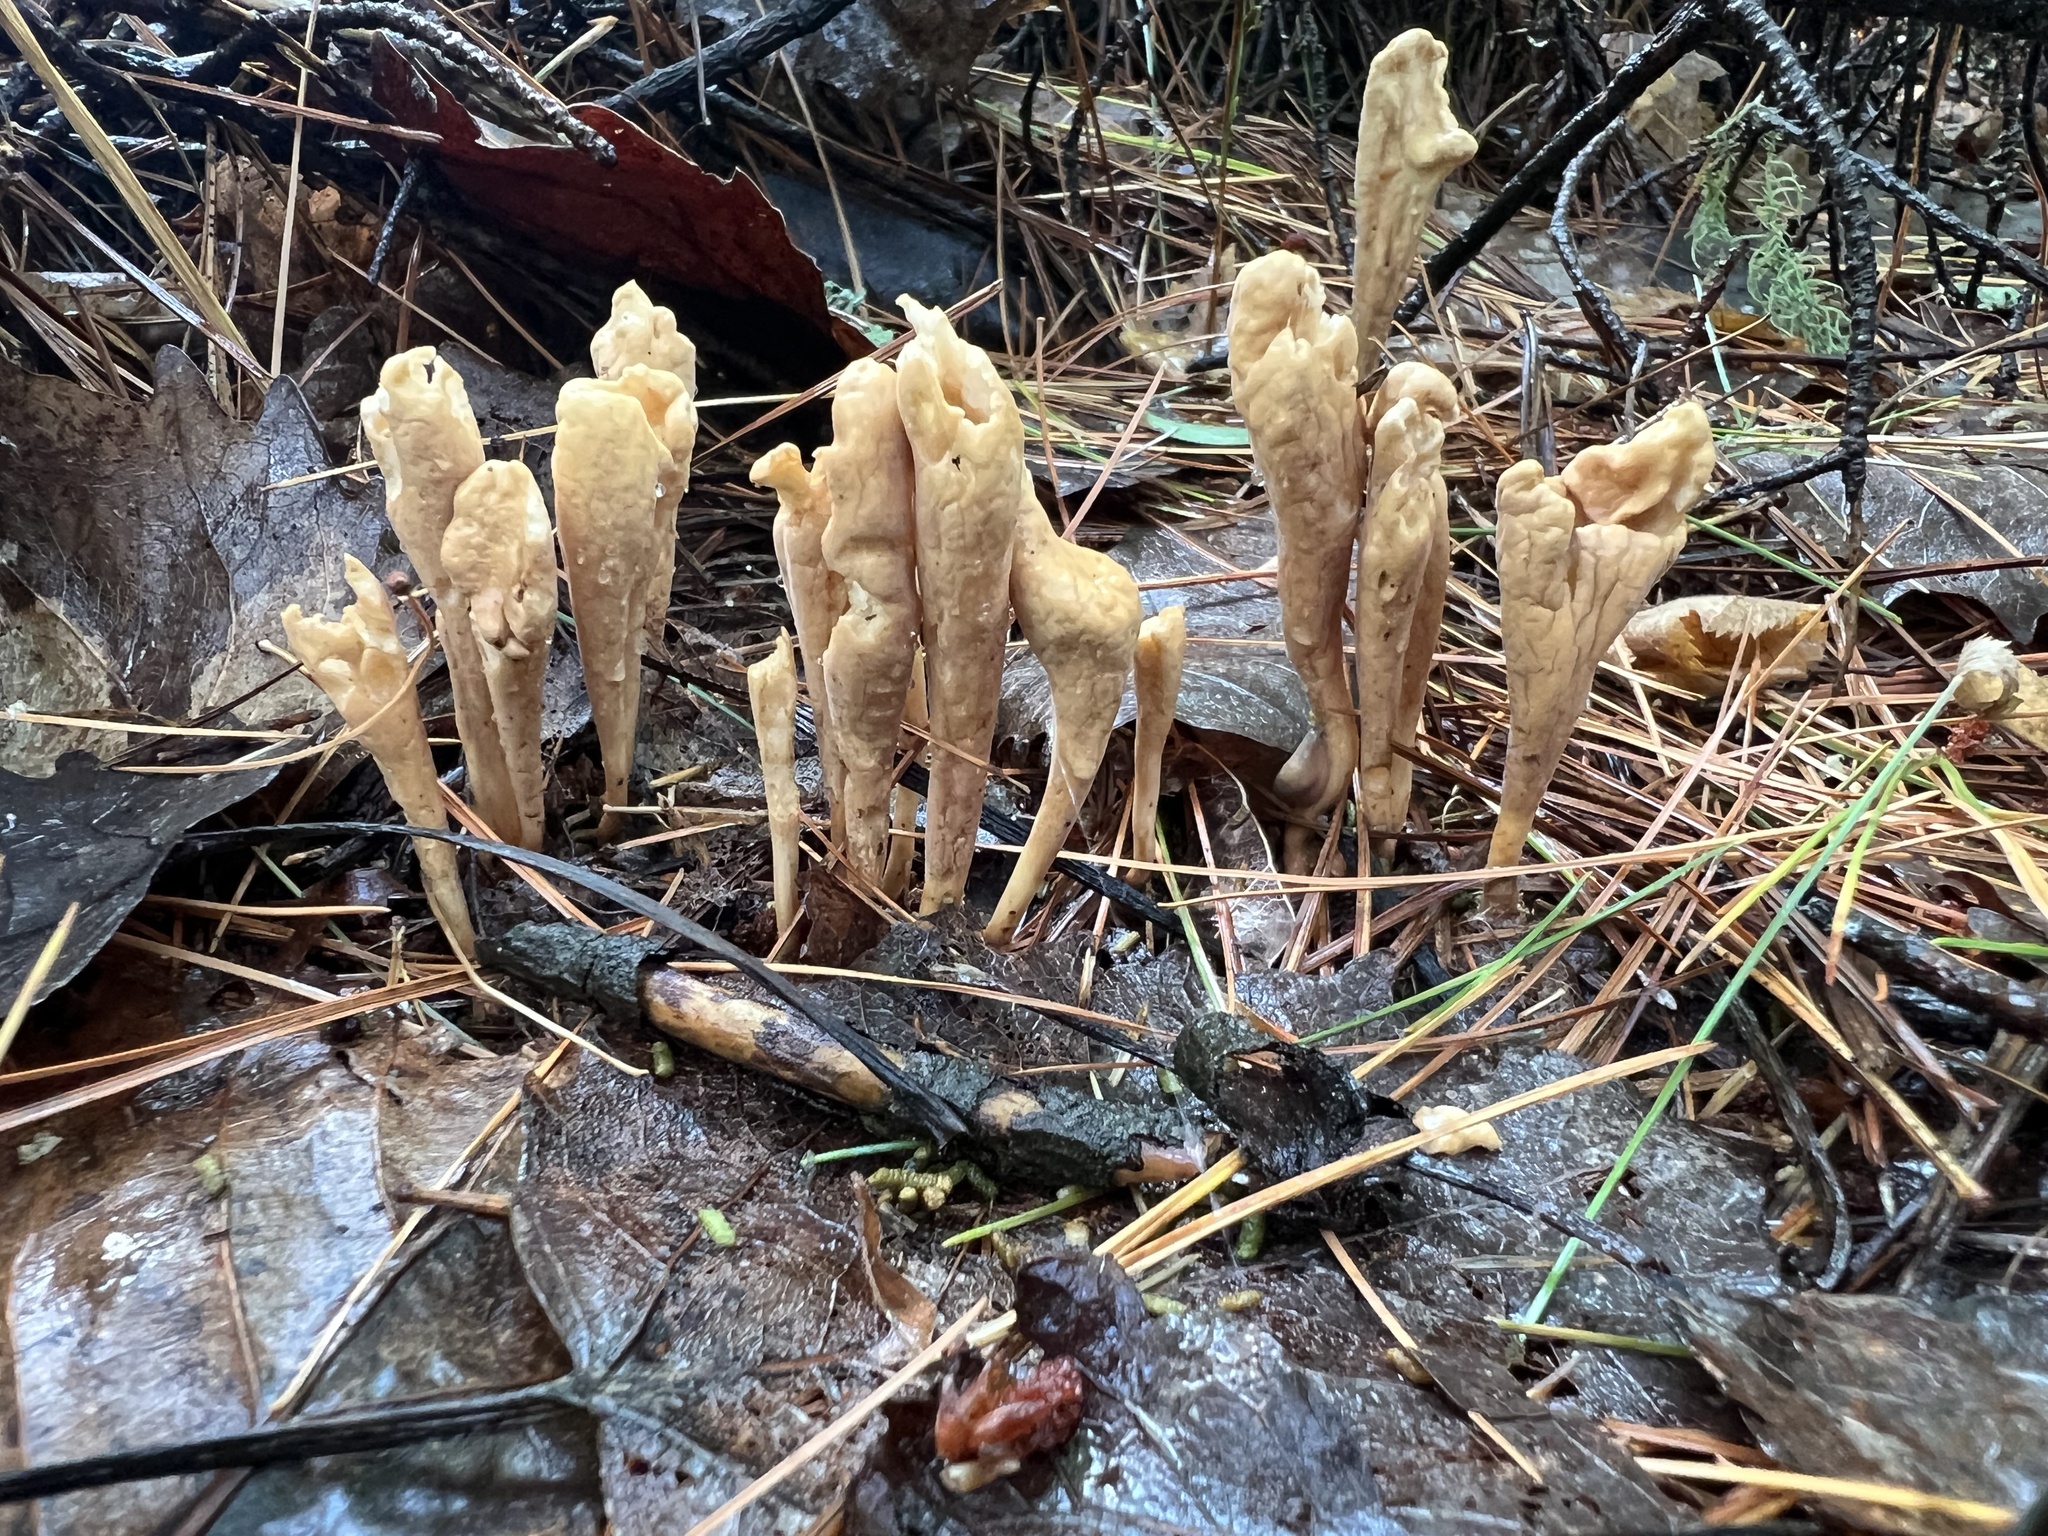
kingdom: Fungi
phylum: Basidiomycota
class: Agaricomycetes
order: Gomphales
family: Clavariadelphaceae
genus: Clavariadelphus
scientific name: Clavariadelphus ligula
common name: Ochre club
